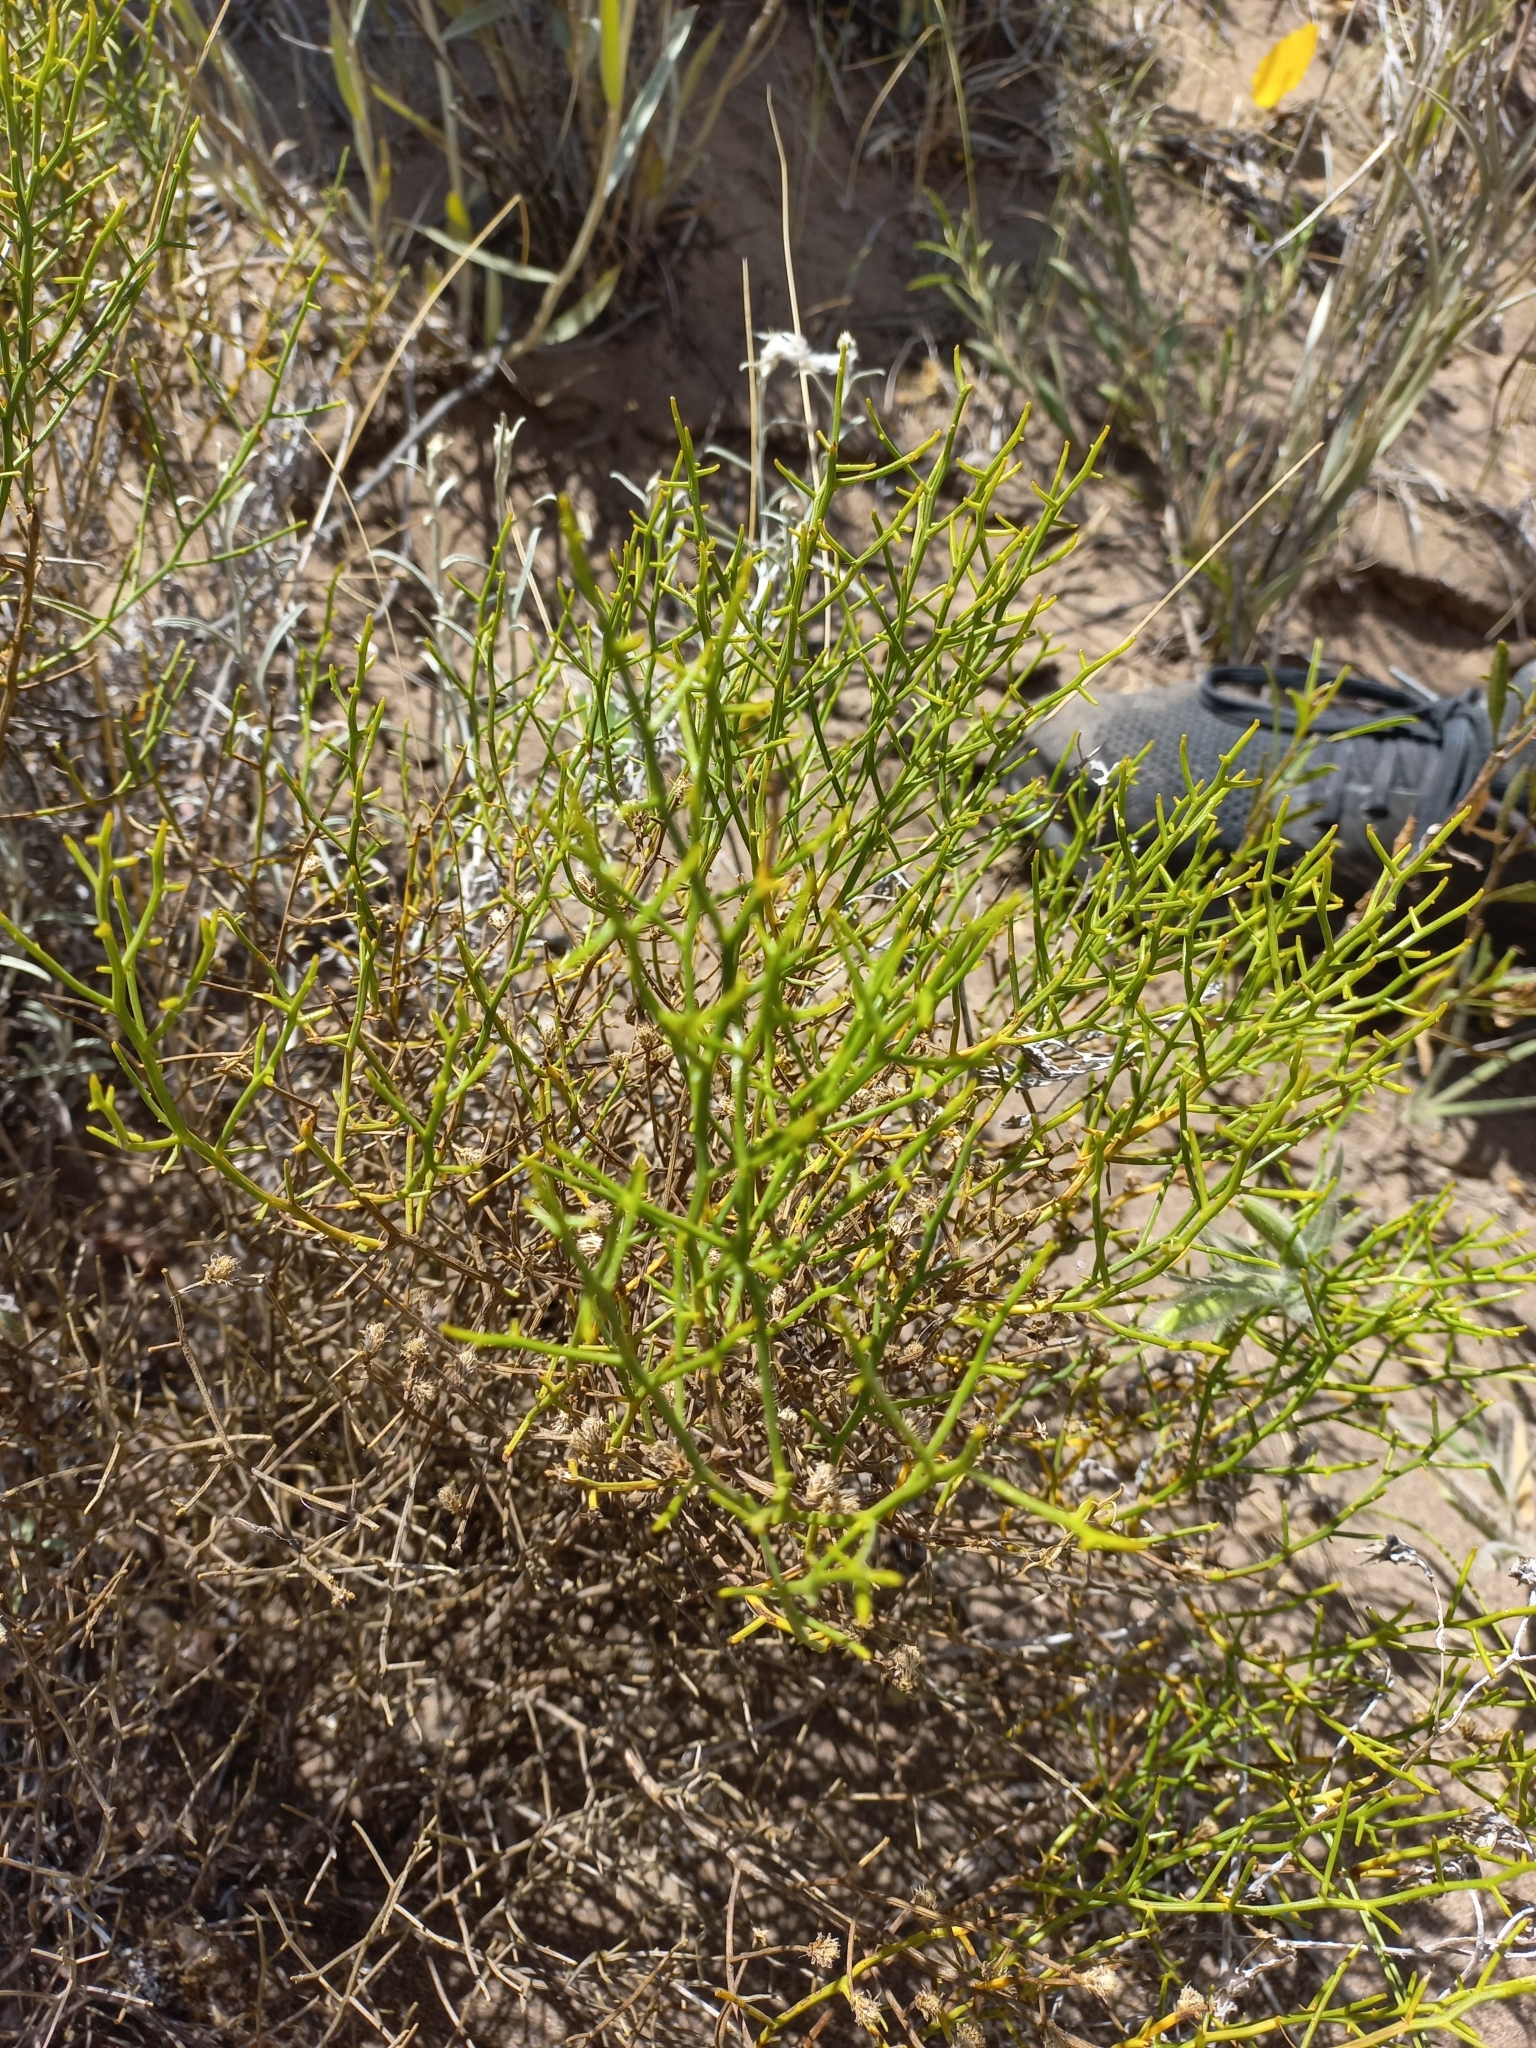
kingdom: Plantae
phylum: Tracheophyta
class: Magnoliopsida
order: Asterales
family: Asteraceae
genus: Baccharis
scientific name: Baccharis divaricata
